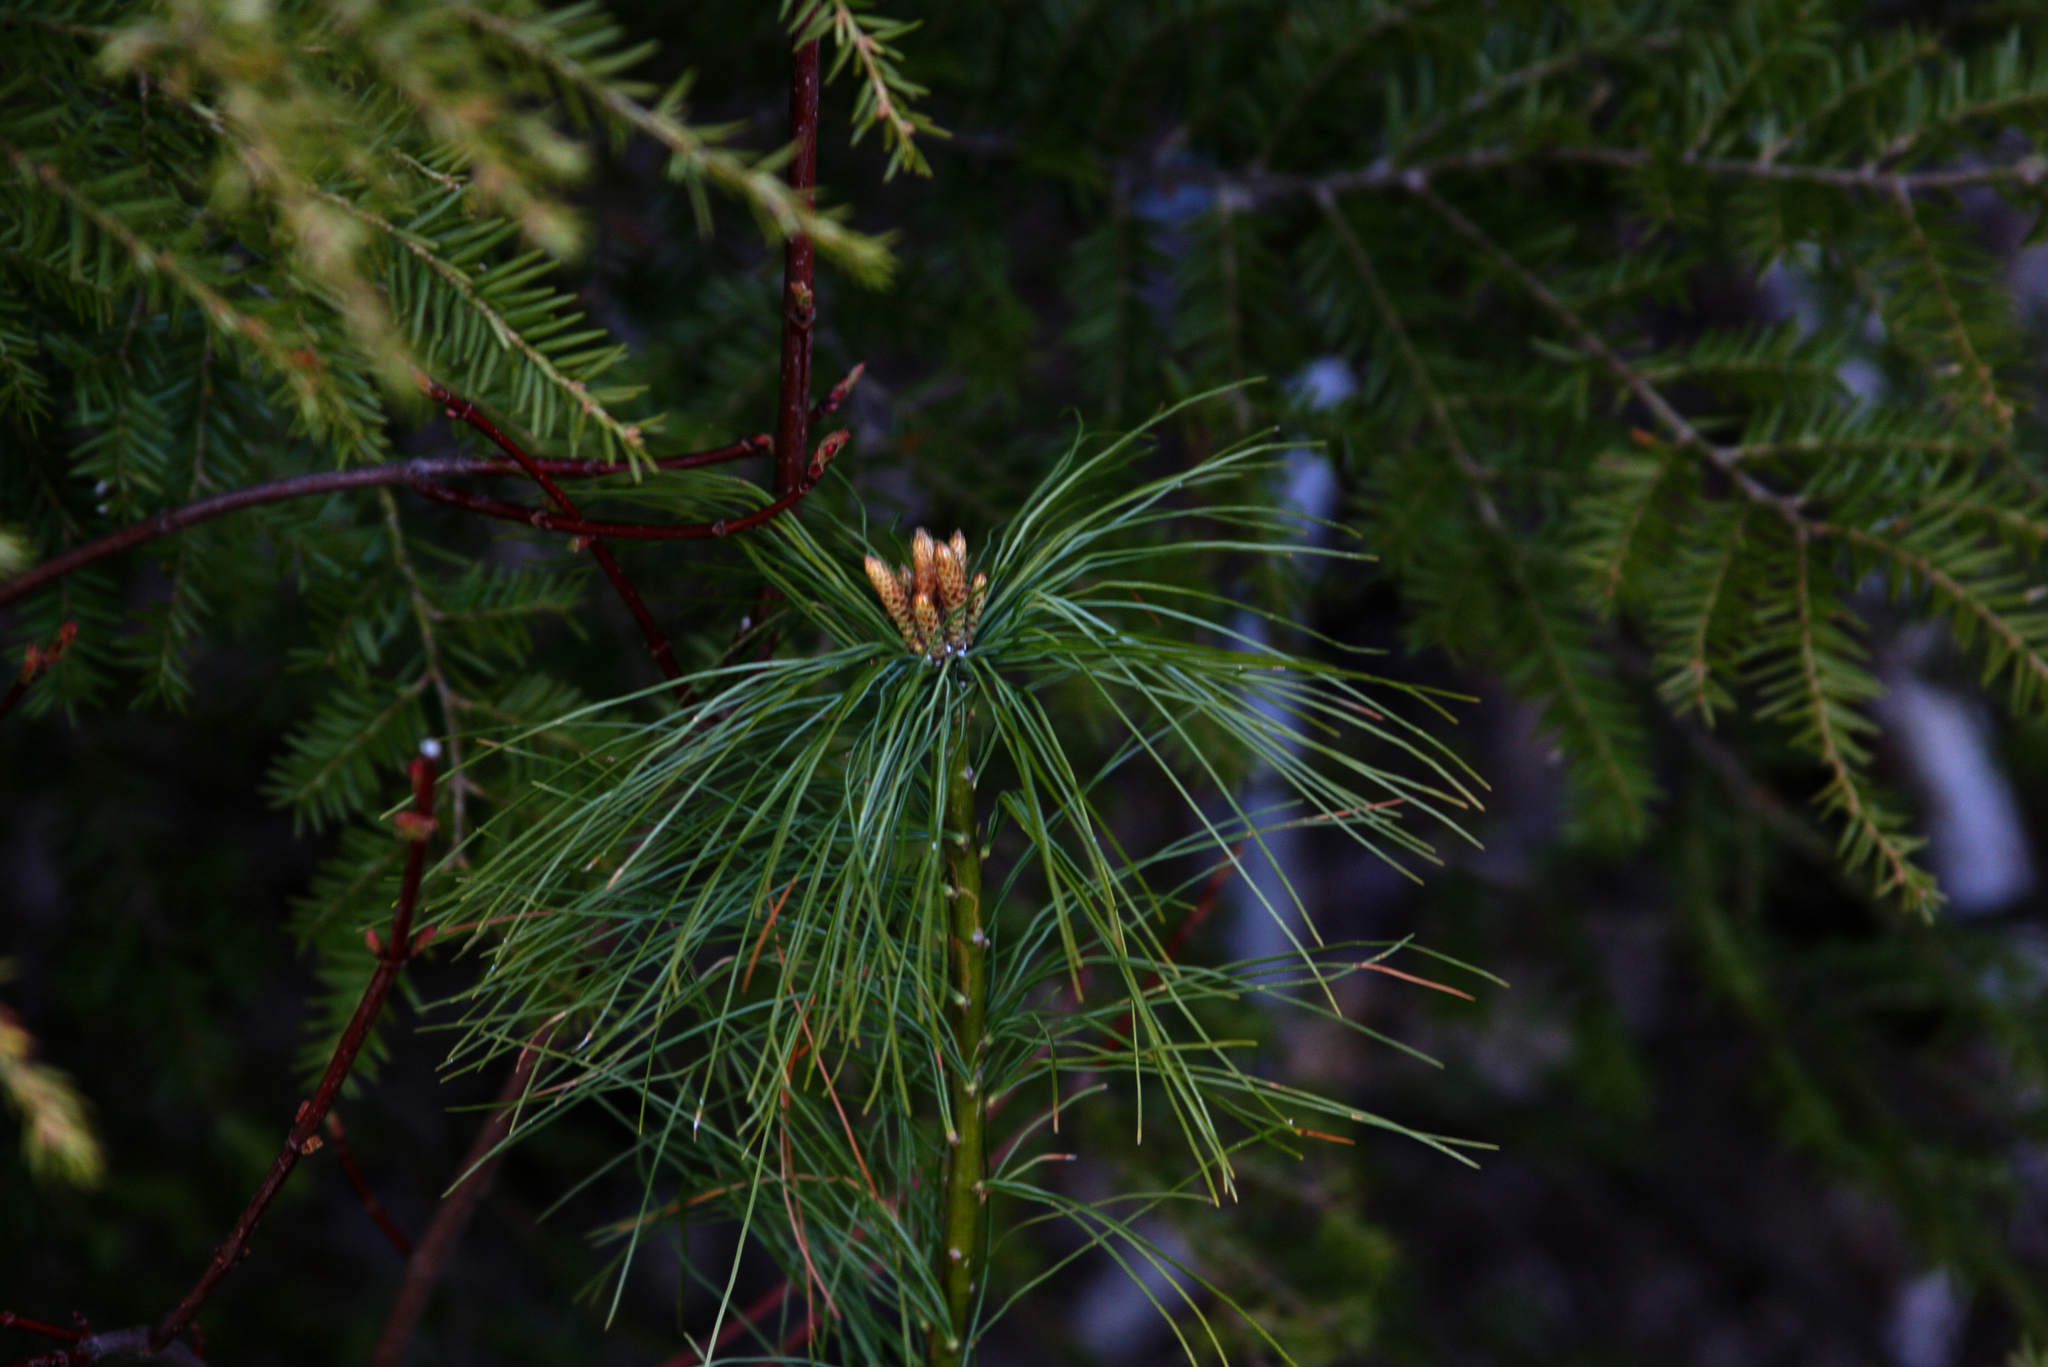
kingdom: Plantae
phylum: Tracheophyta
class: Pinopsida
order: Pinales
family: Pinaceae
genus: Pinus
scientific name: Pinus strobus
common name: Weymouth pine
